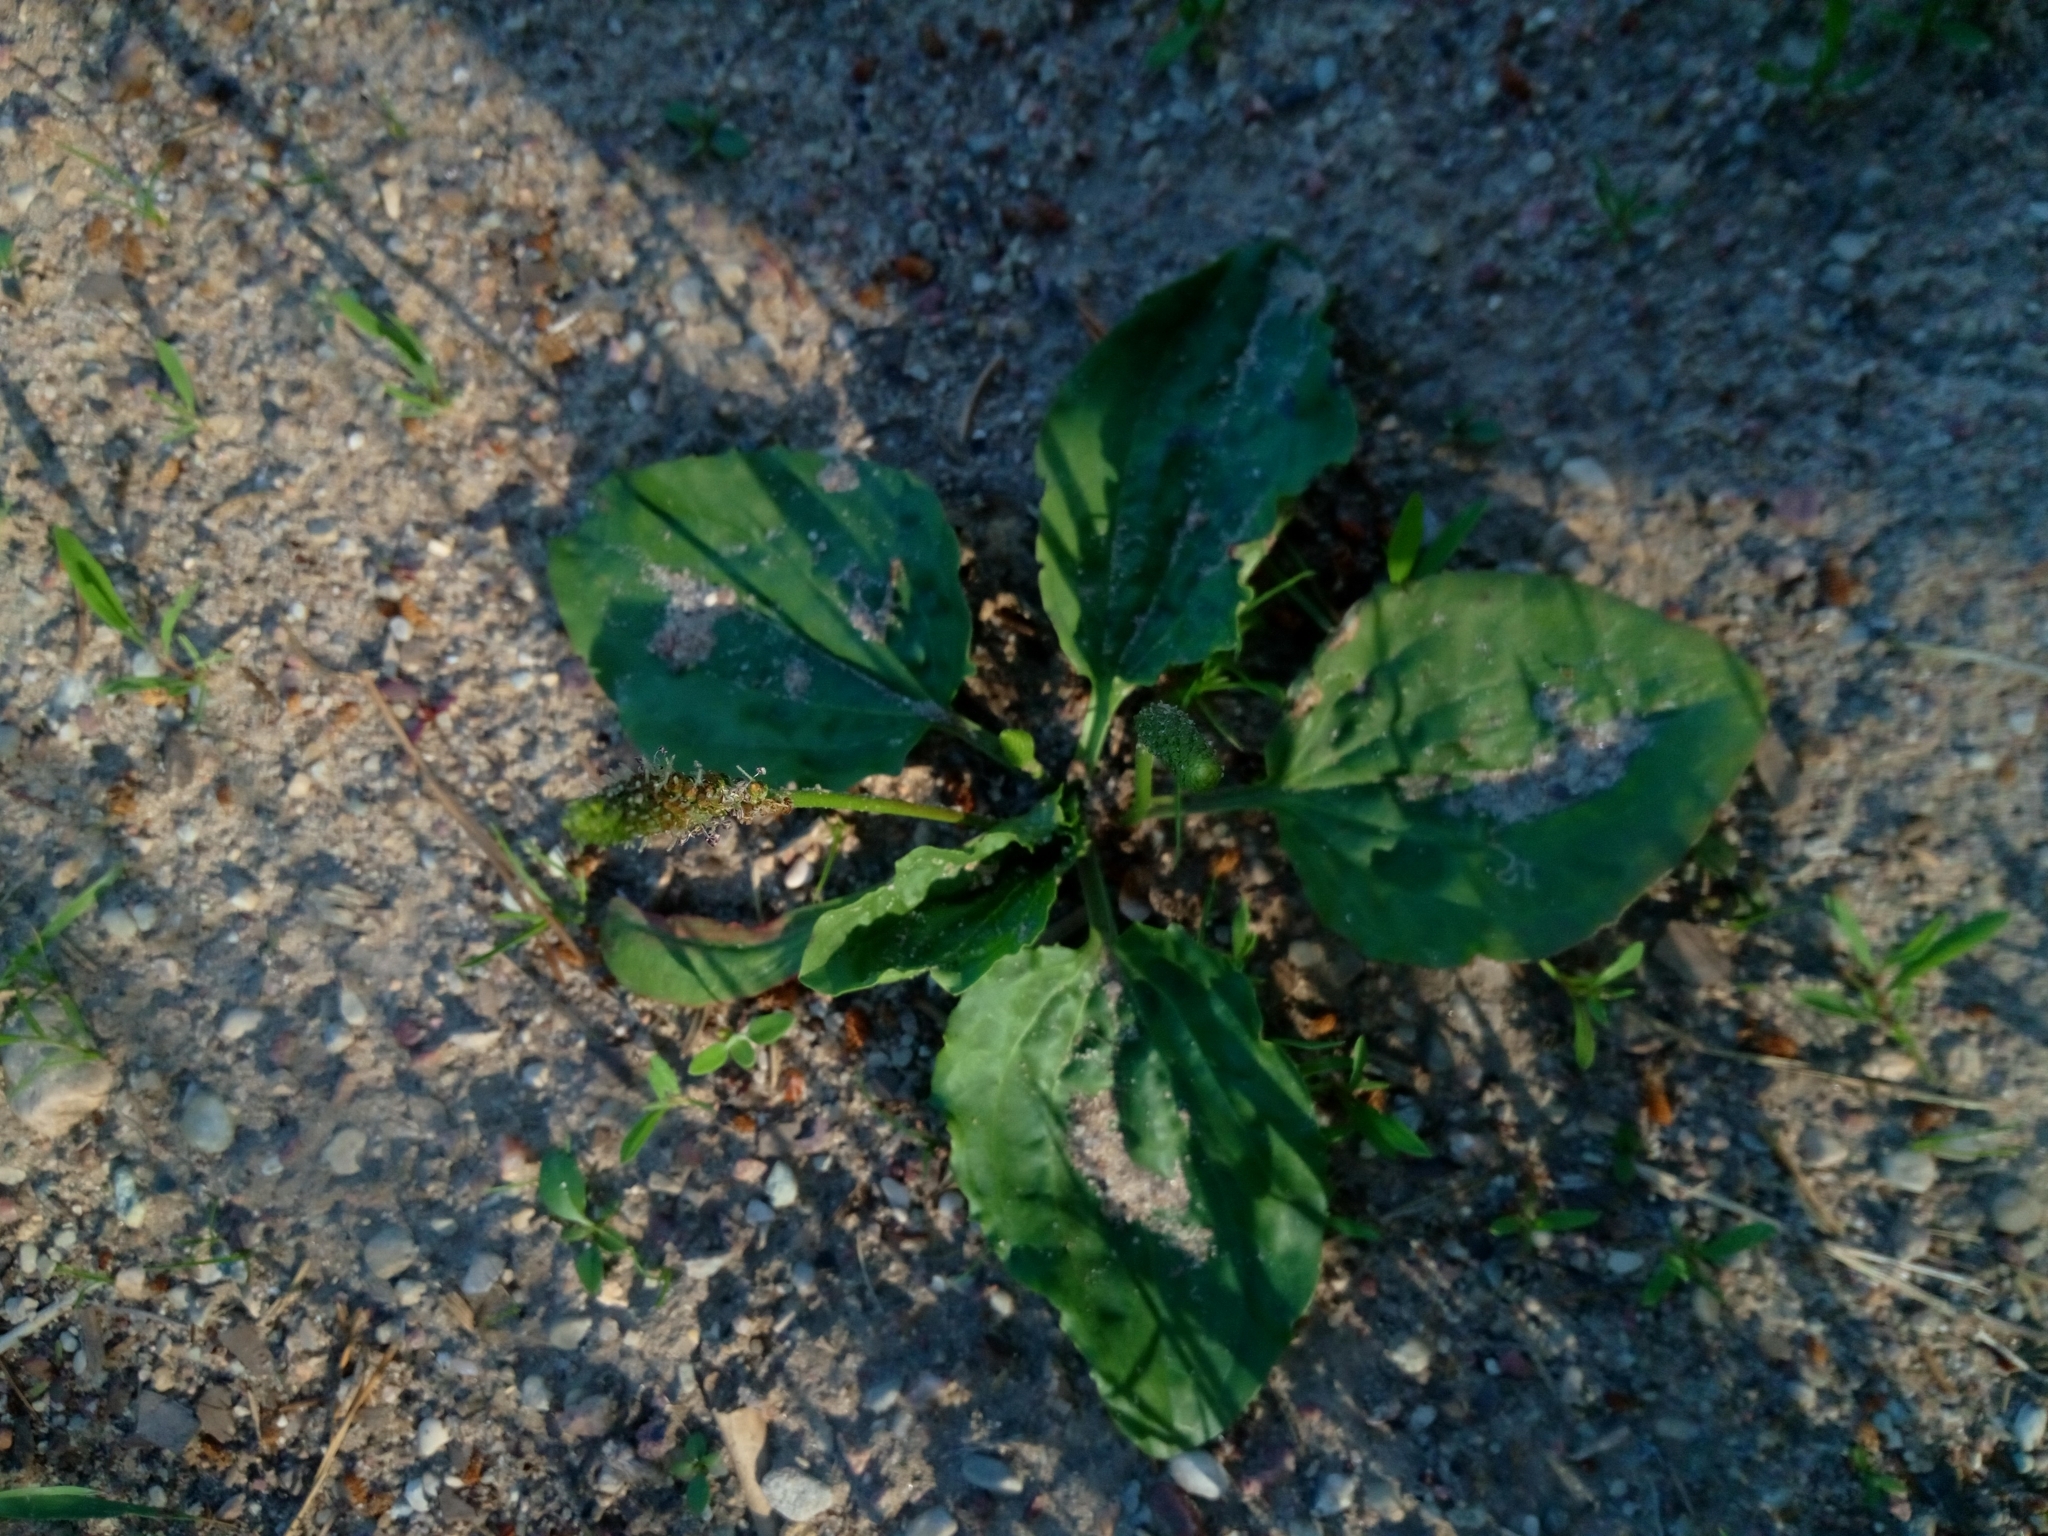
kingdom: Plantae
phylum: Tracheophyta
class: Magnoliopsida
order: Lamiales
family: Plantaginaceae
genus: Plantago
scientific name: Plantago major
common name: Common plantain
